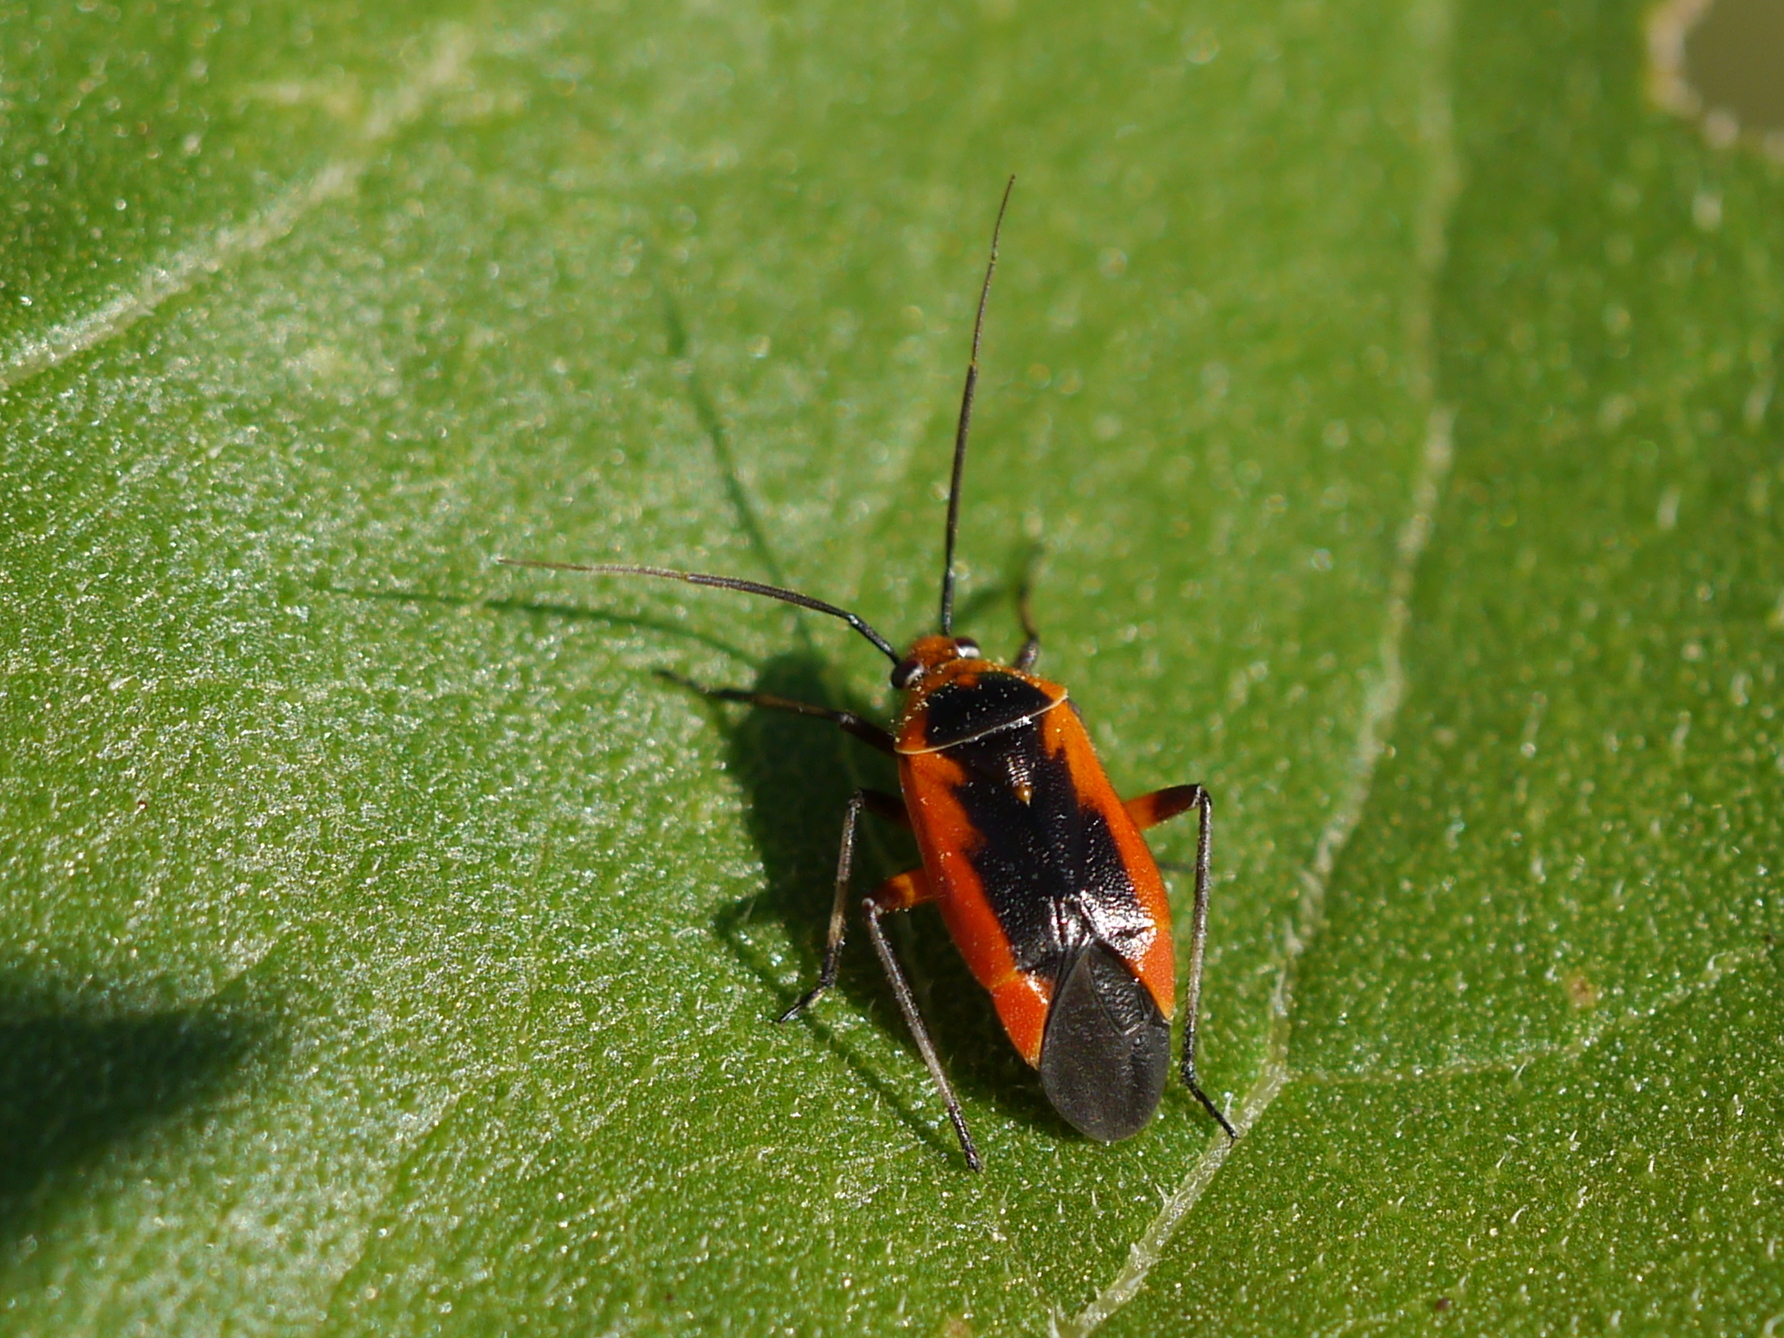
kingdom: Animalia
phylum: Arthropoda
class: Insecta
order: Hemiptera
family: Miridae
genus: Neocapsus
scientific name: Neocapsus fasciativentris
